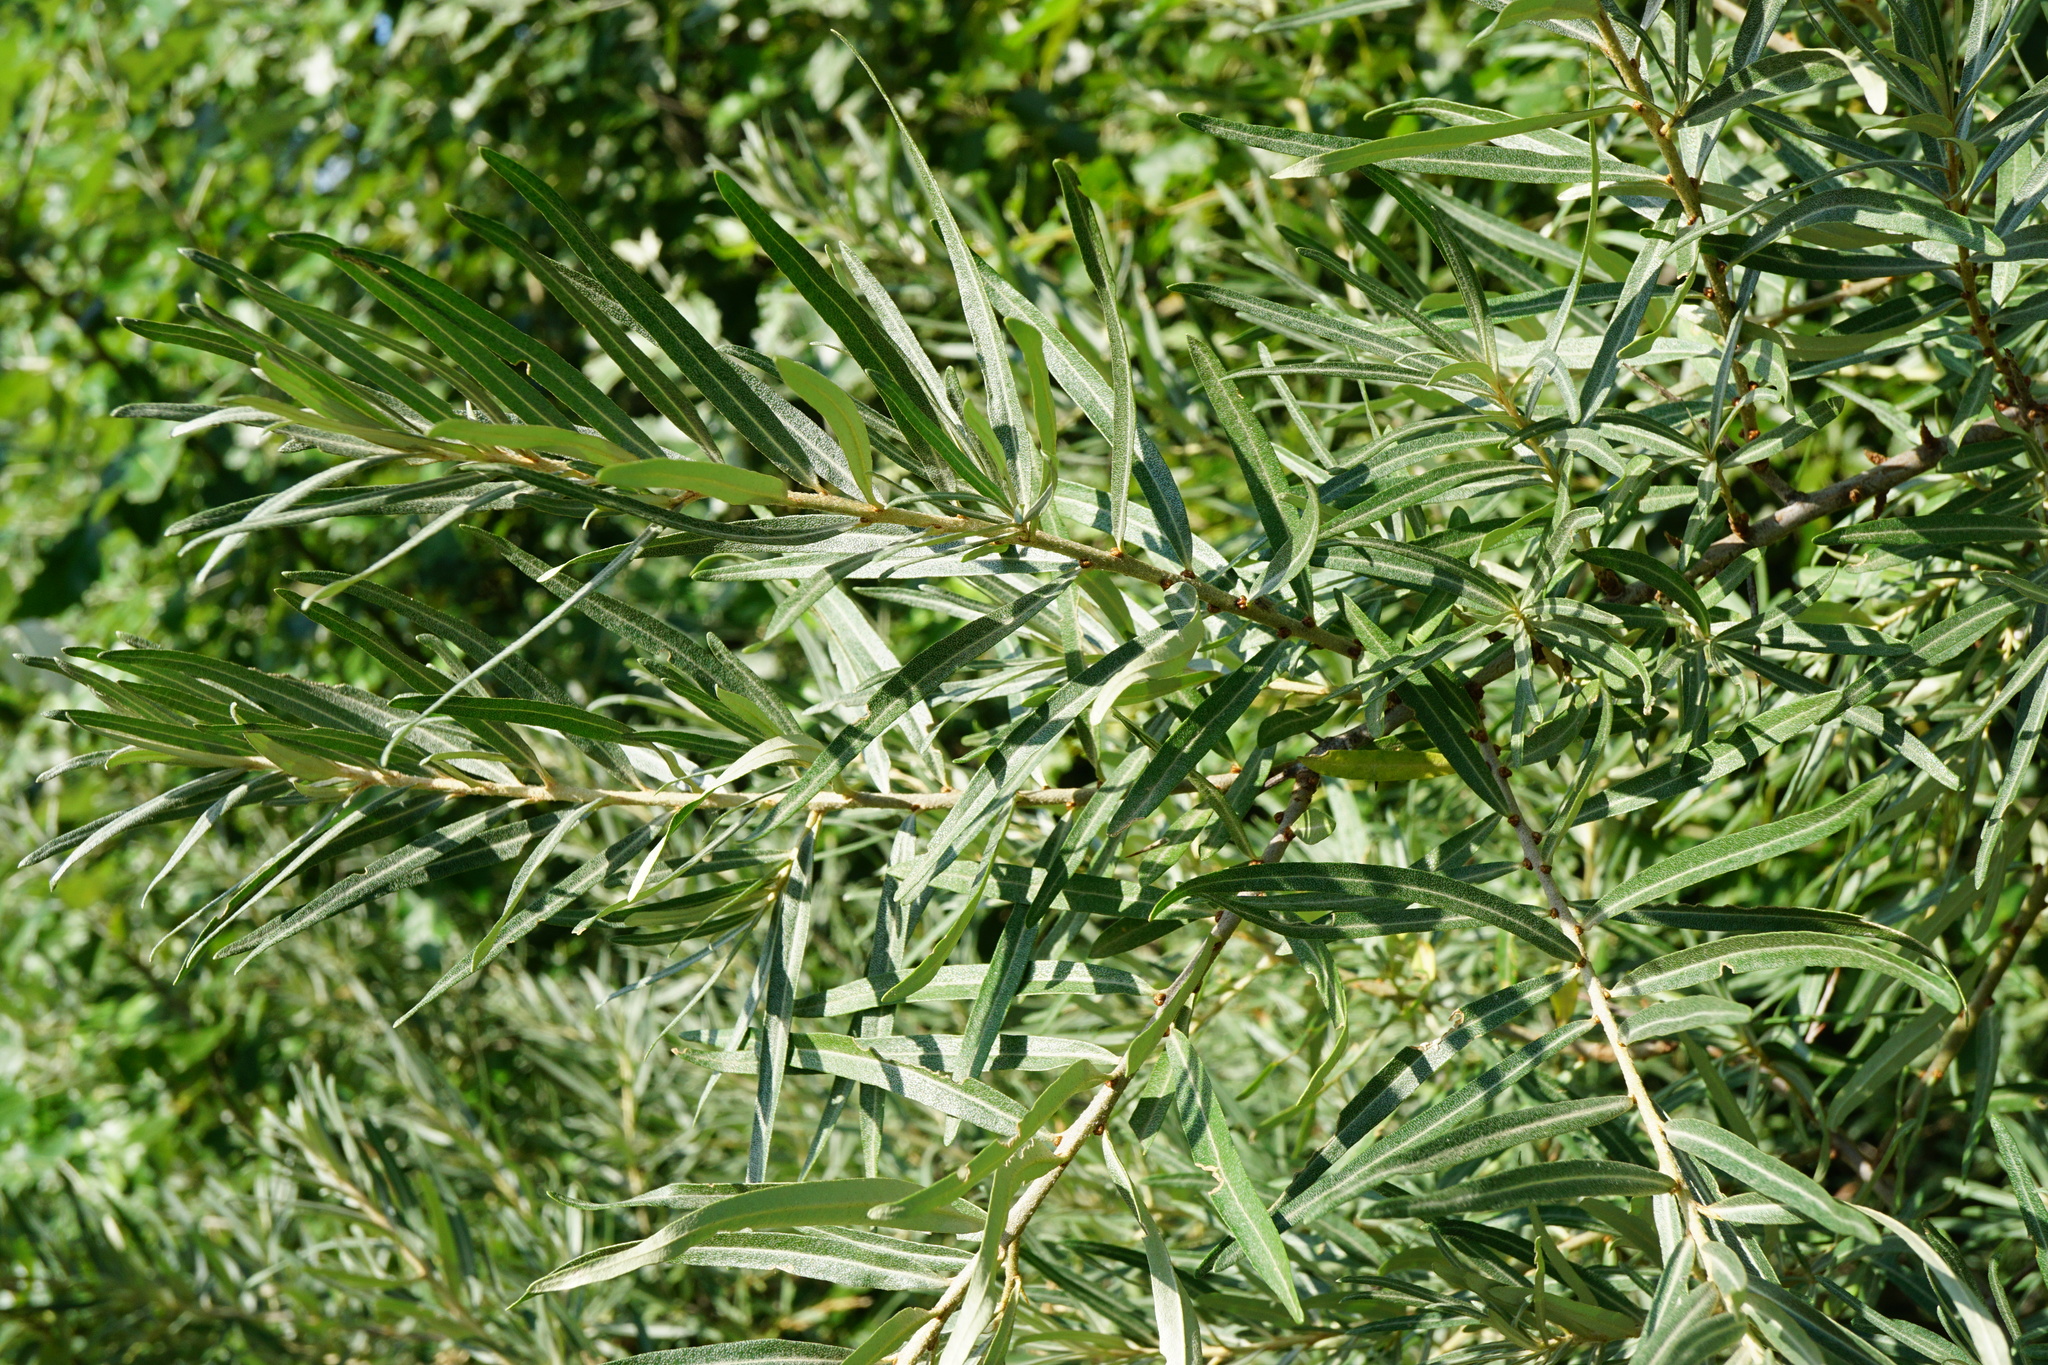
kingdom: Plantae
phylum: Tracheophyta
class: Magnoliopsida
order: Rosales
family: Elaeagnaceae
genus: Hippophae
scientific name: Hippophae rhamnoides
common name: Sea-buckthorn
